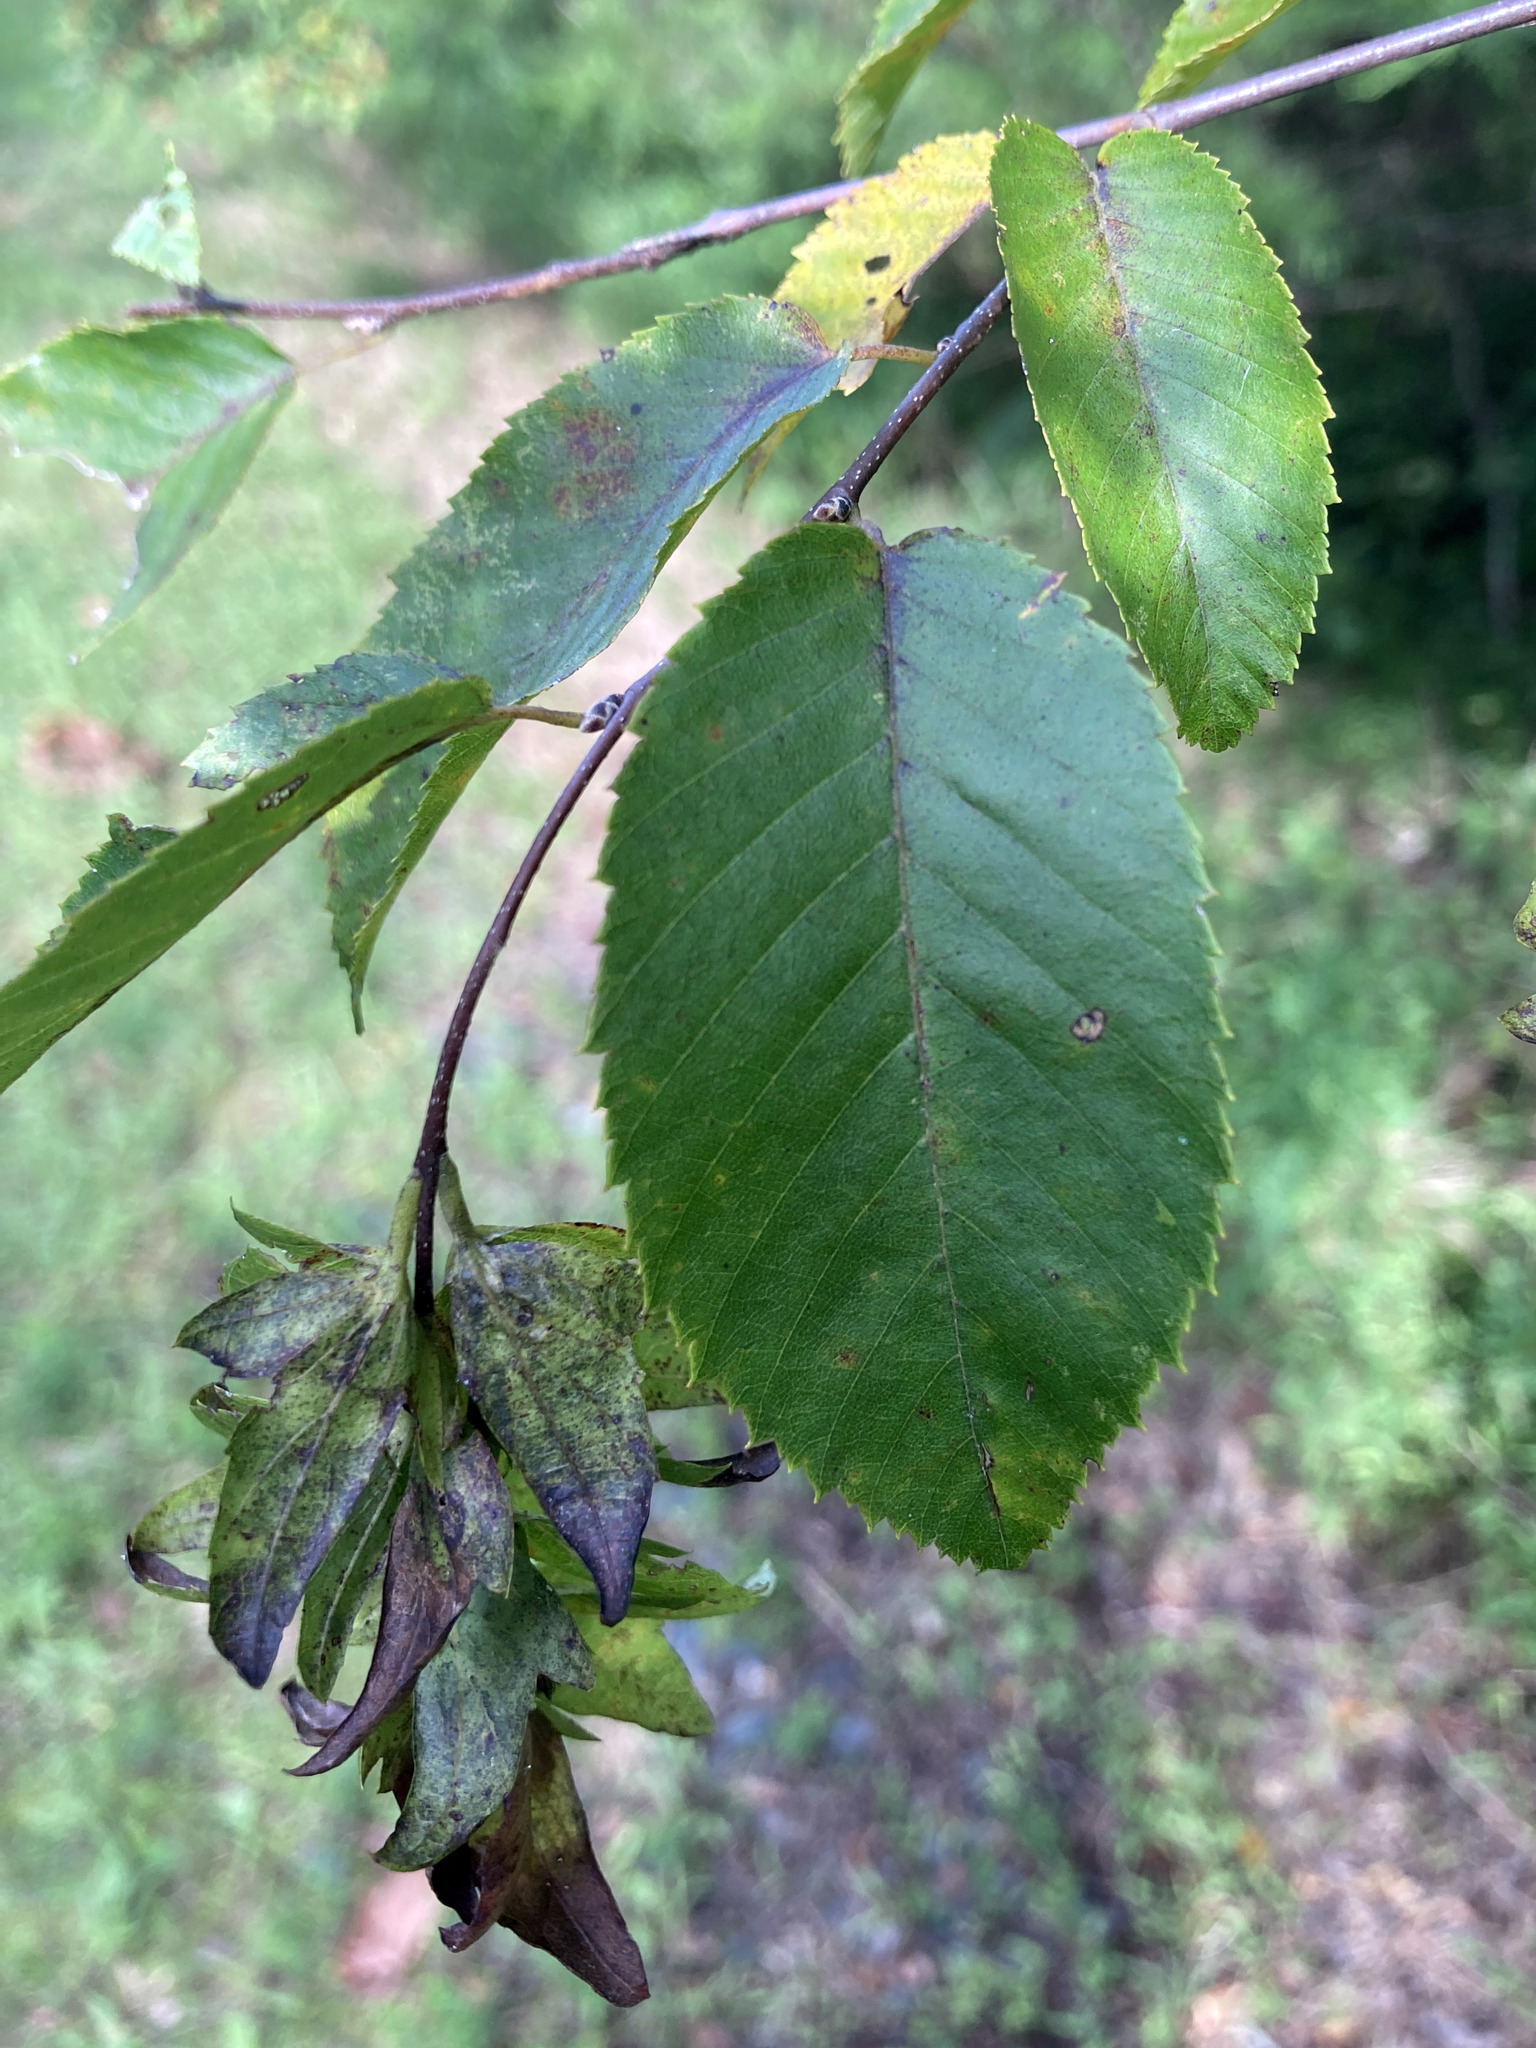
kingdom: Plantae
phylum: Tracheophyta
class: Magnoliopsida
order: Fagales
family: Betulaceae
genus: Carpinus
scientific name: Carpinus caroliniana
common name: American hornbeam
